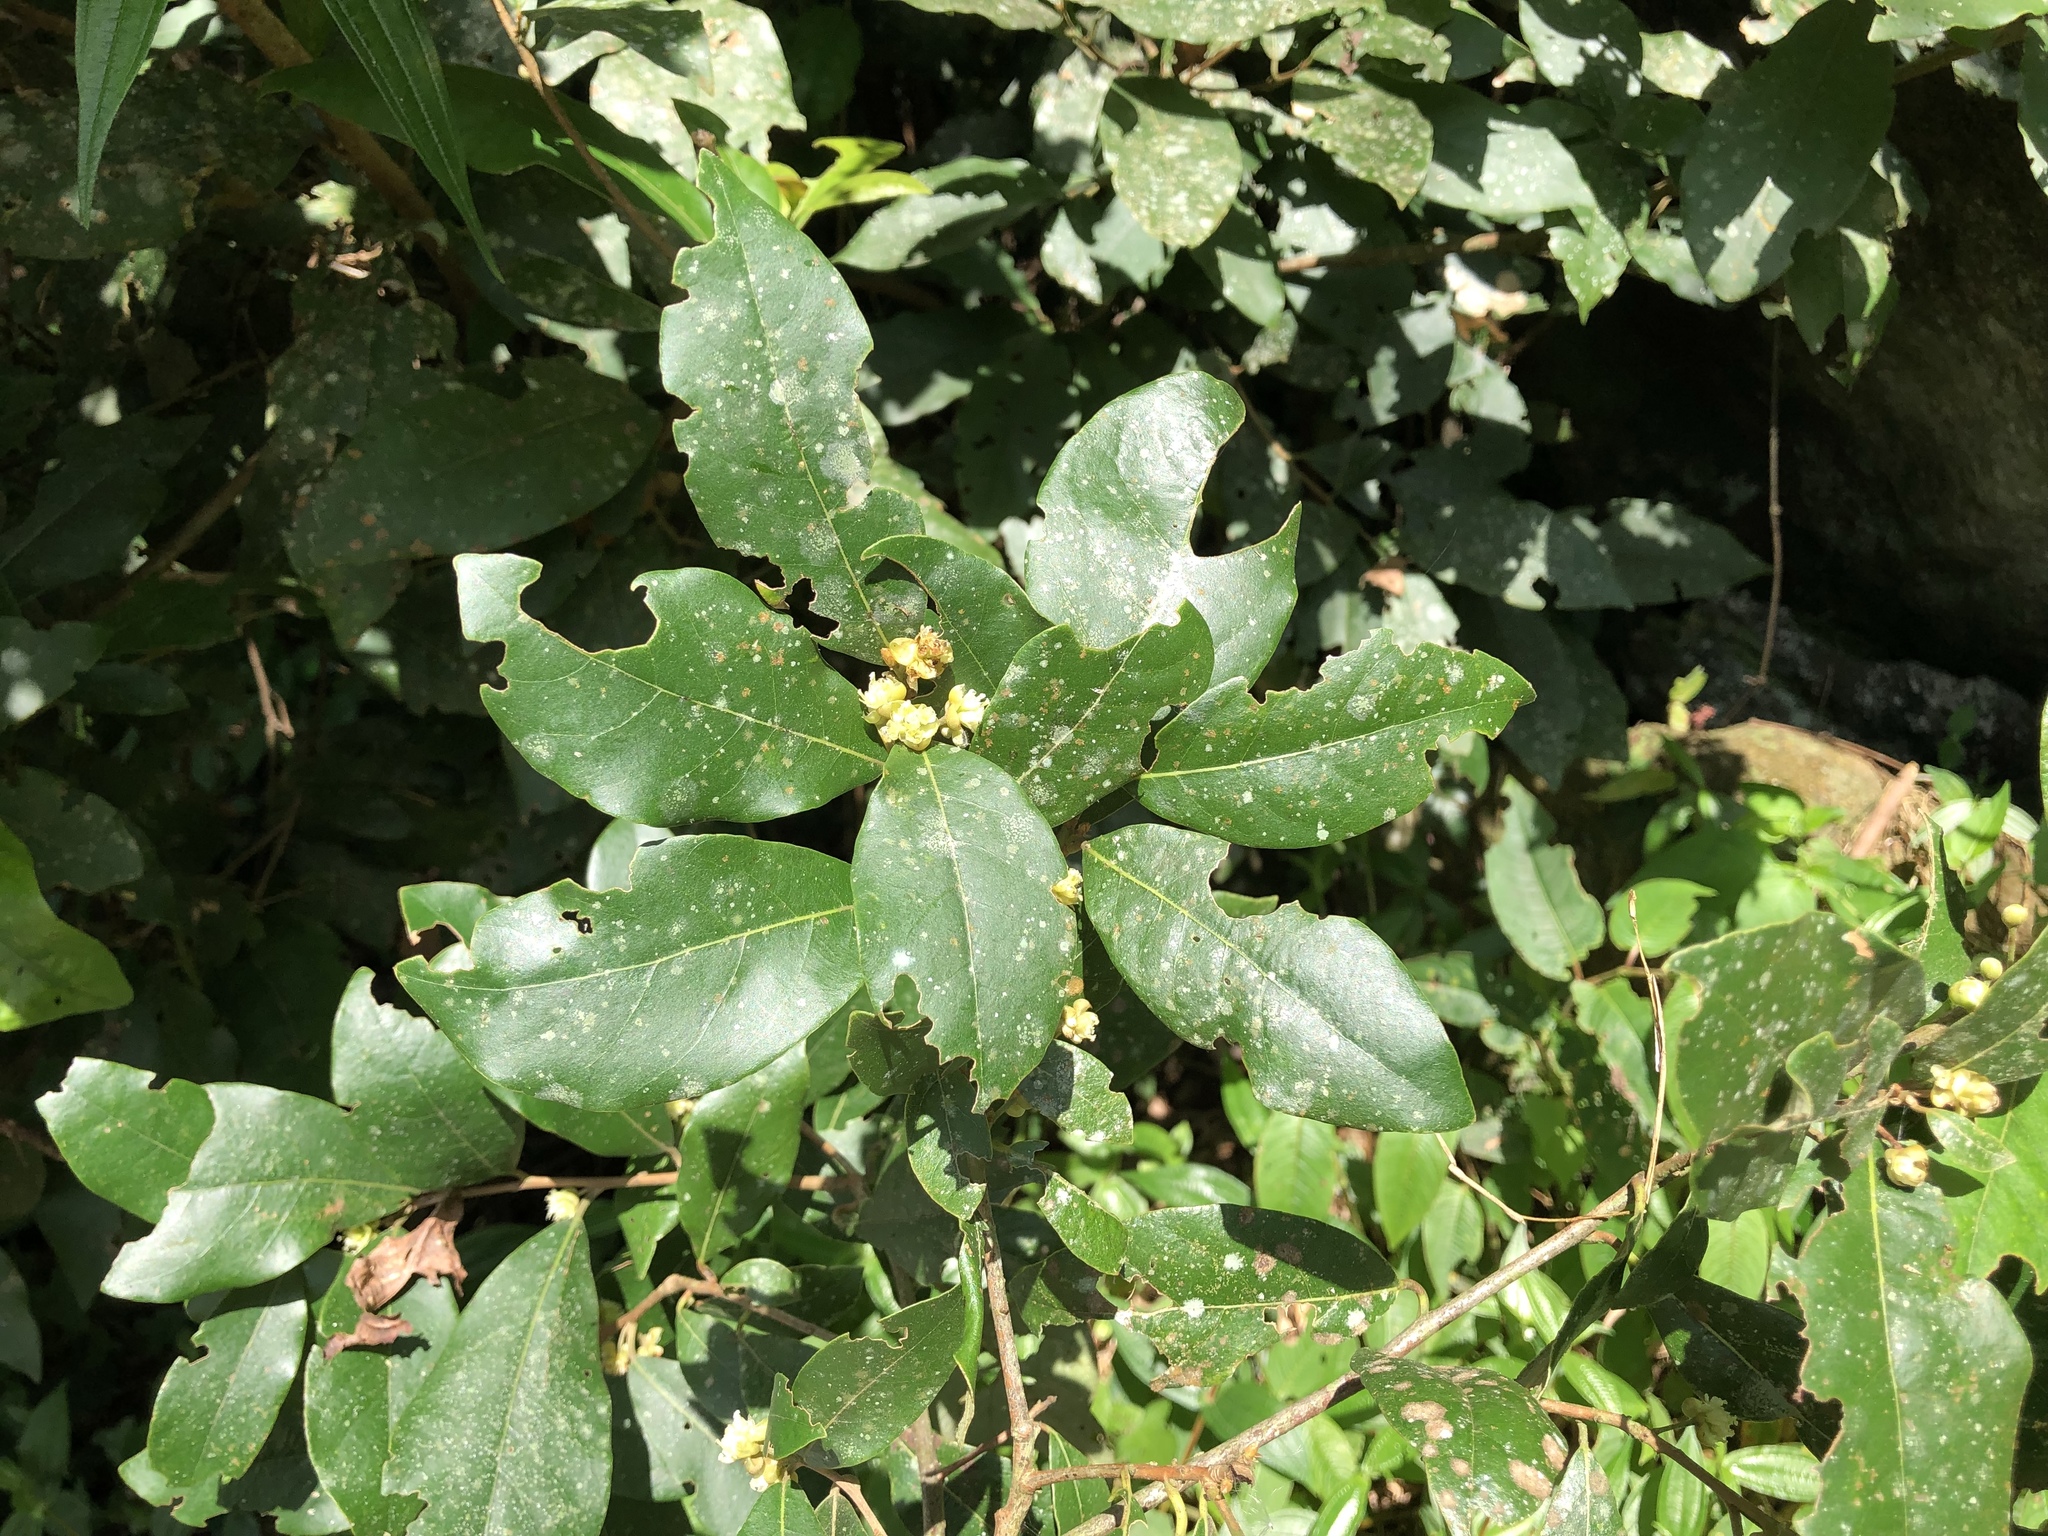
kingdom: Plantae
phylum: Tracheophyta
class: Magnoliopsida
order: Laurales
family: Lauraceae
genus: Litsea
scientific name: Litsea akoensis
